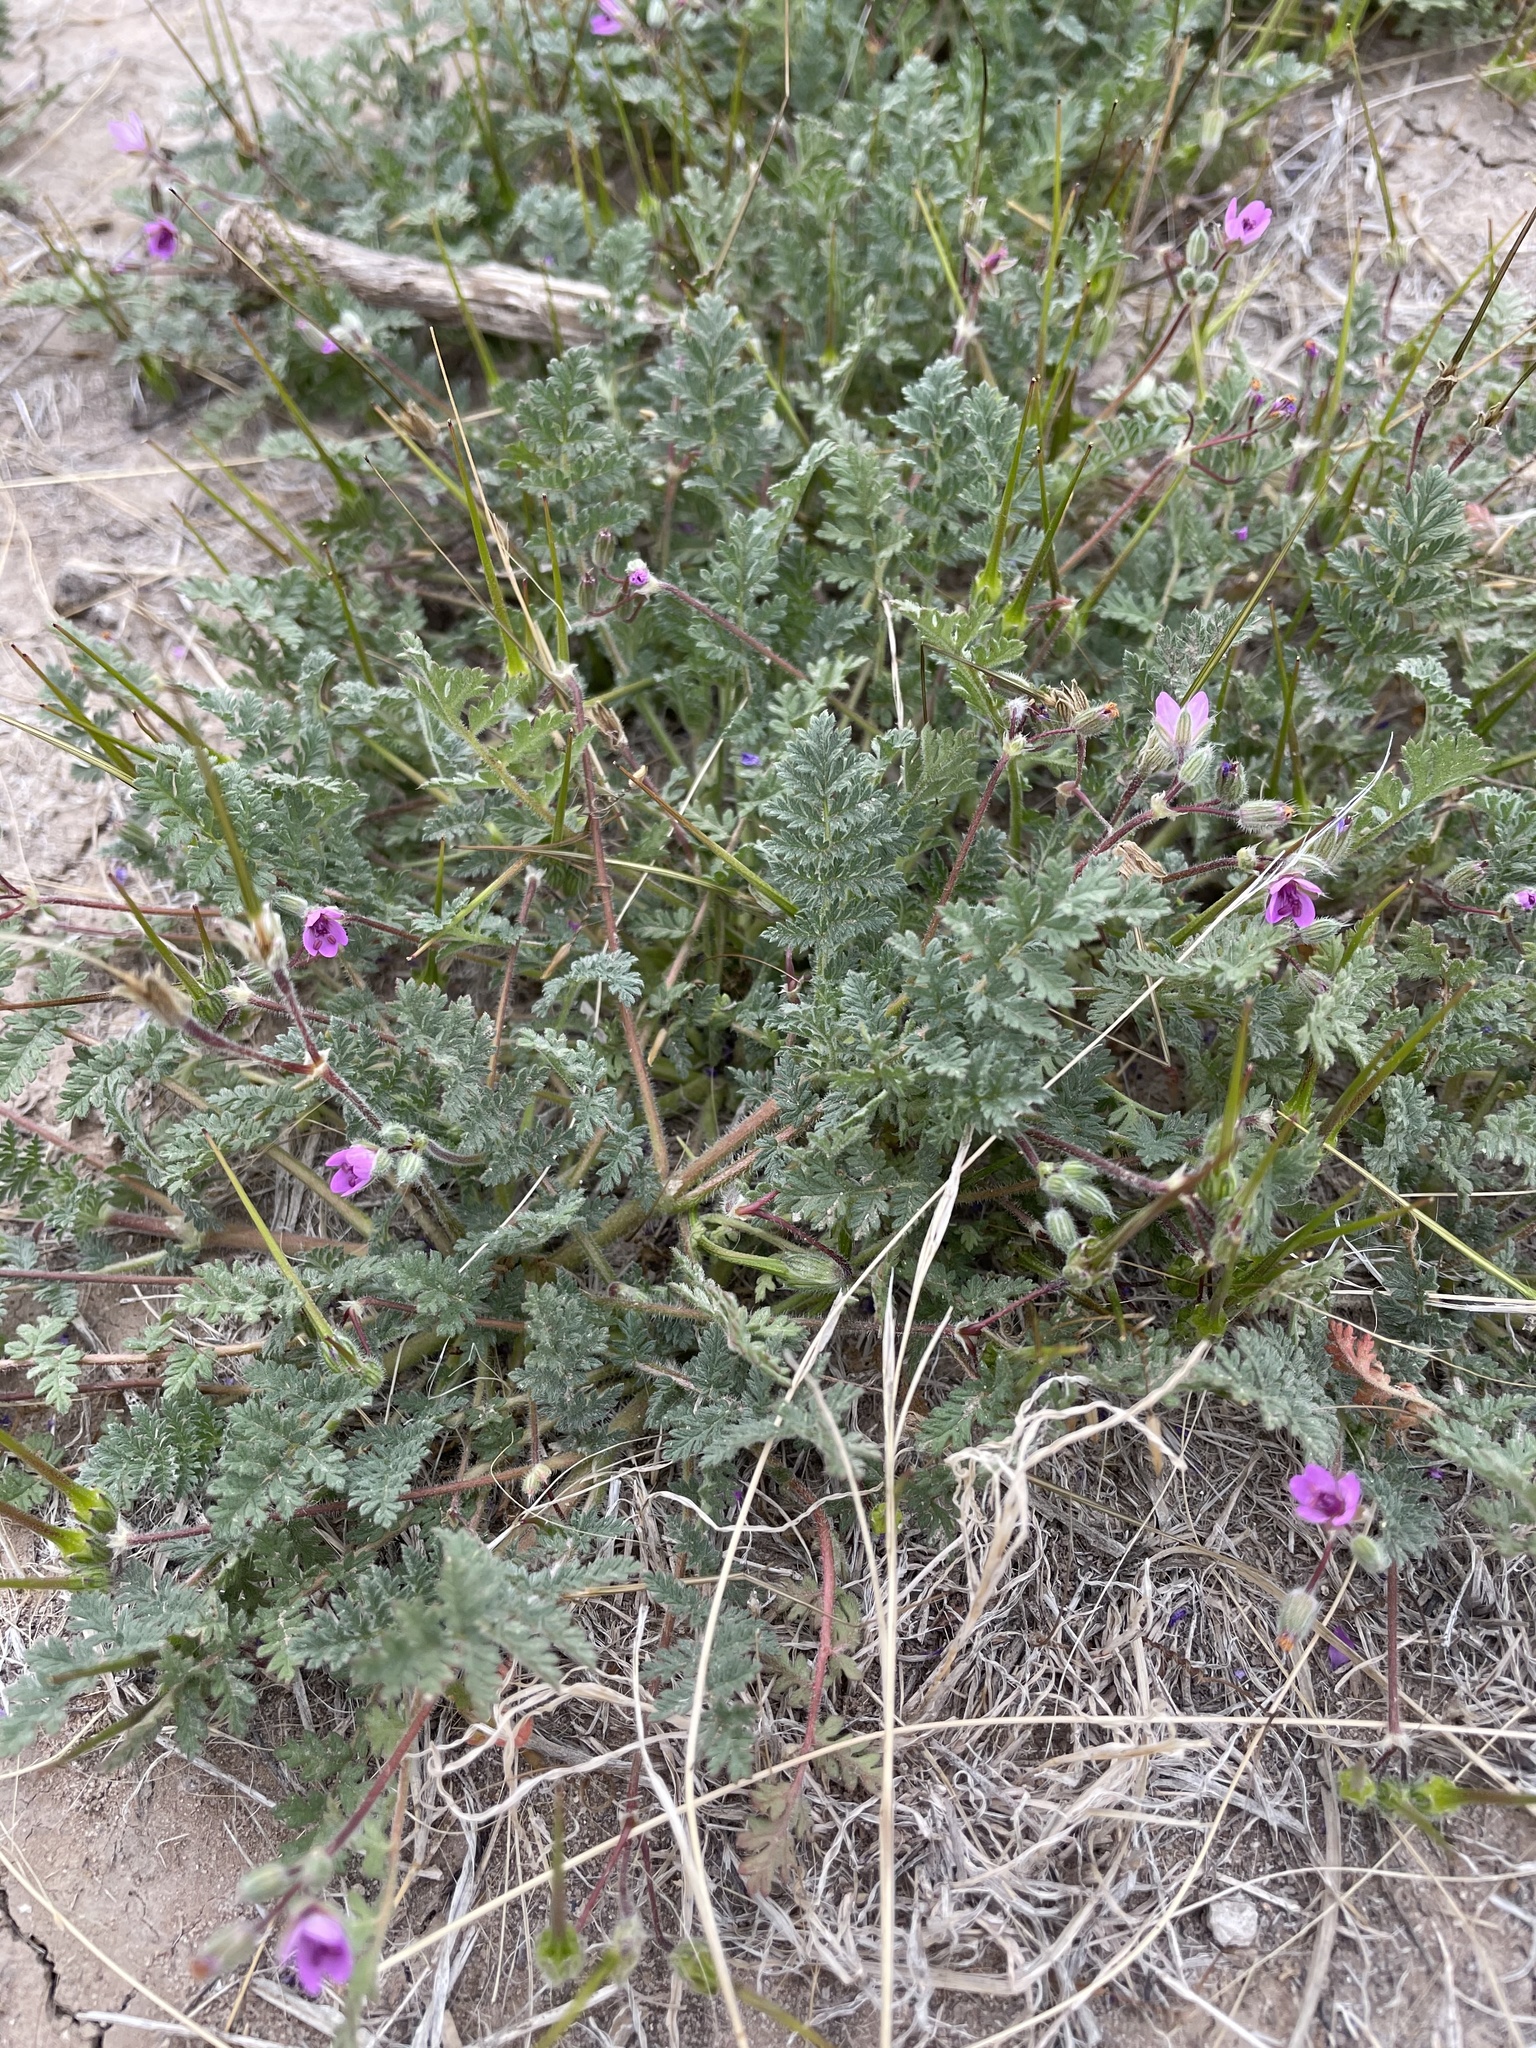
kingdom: Plantae
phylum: Tracheophyta
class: Magnoliopsida
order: Geraniales
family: Geraniaceae
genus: Erodium
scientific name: Erodium cicutarium
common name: Common stork's-bill
